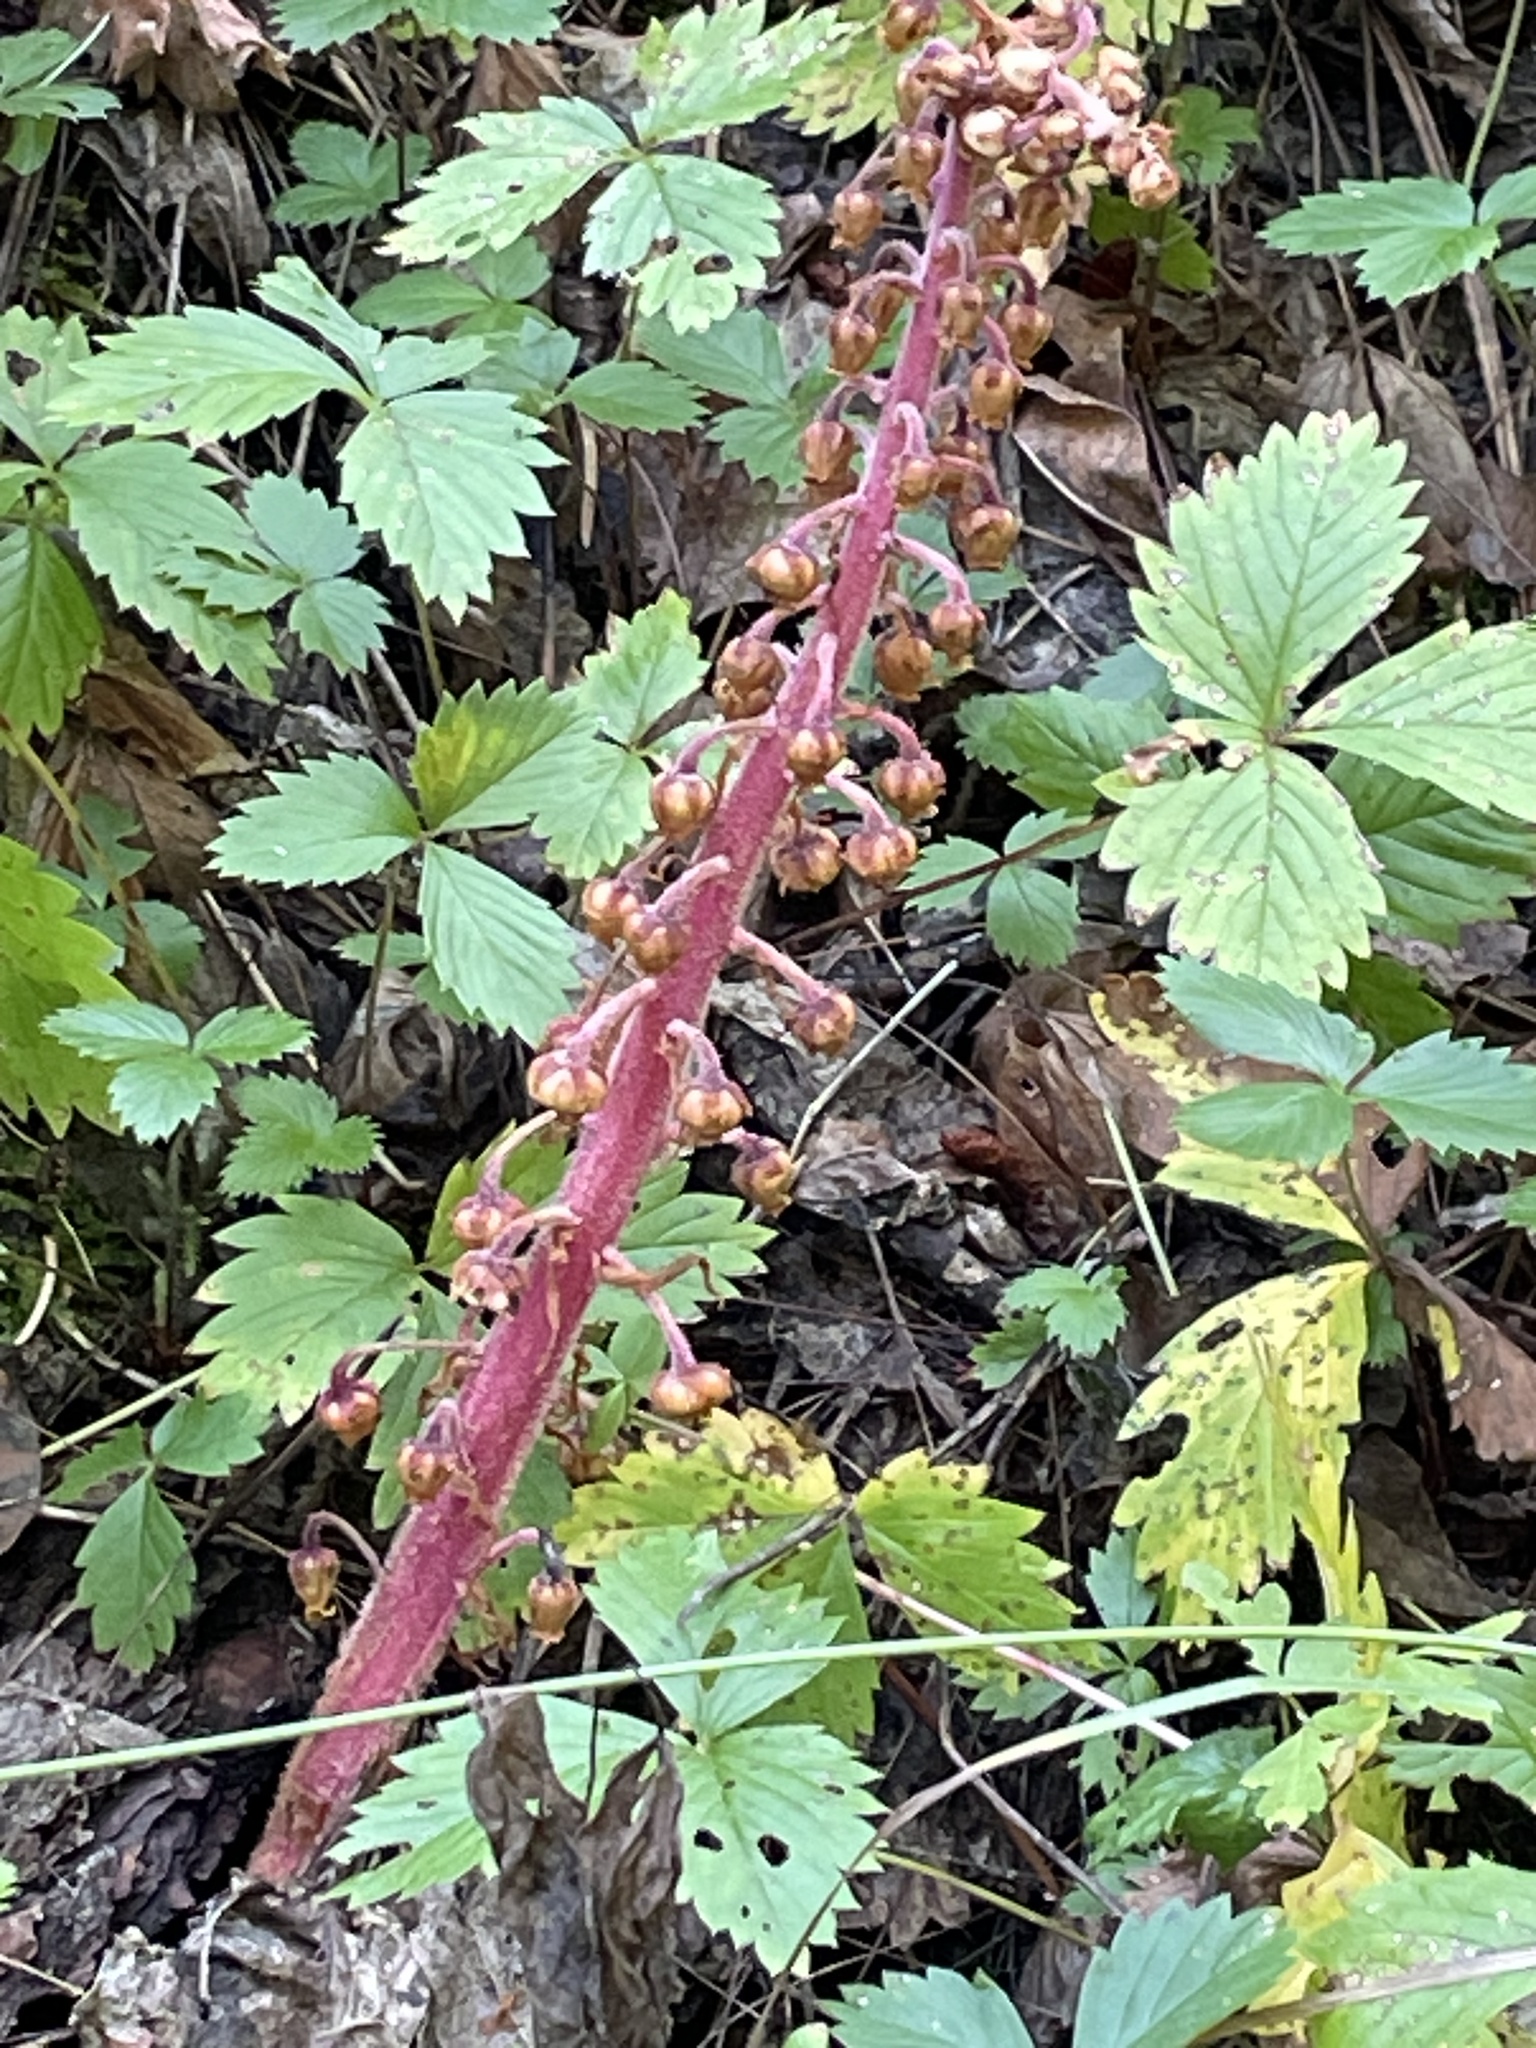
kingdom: Plantae
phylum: Tracheophyta
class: Magnoliopsida
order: Ericales
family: Ericaceae
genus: Pterospora
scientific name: Pterospora andromedea
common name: Giant bird's-nest
